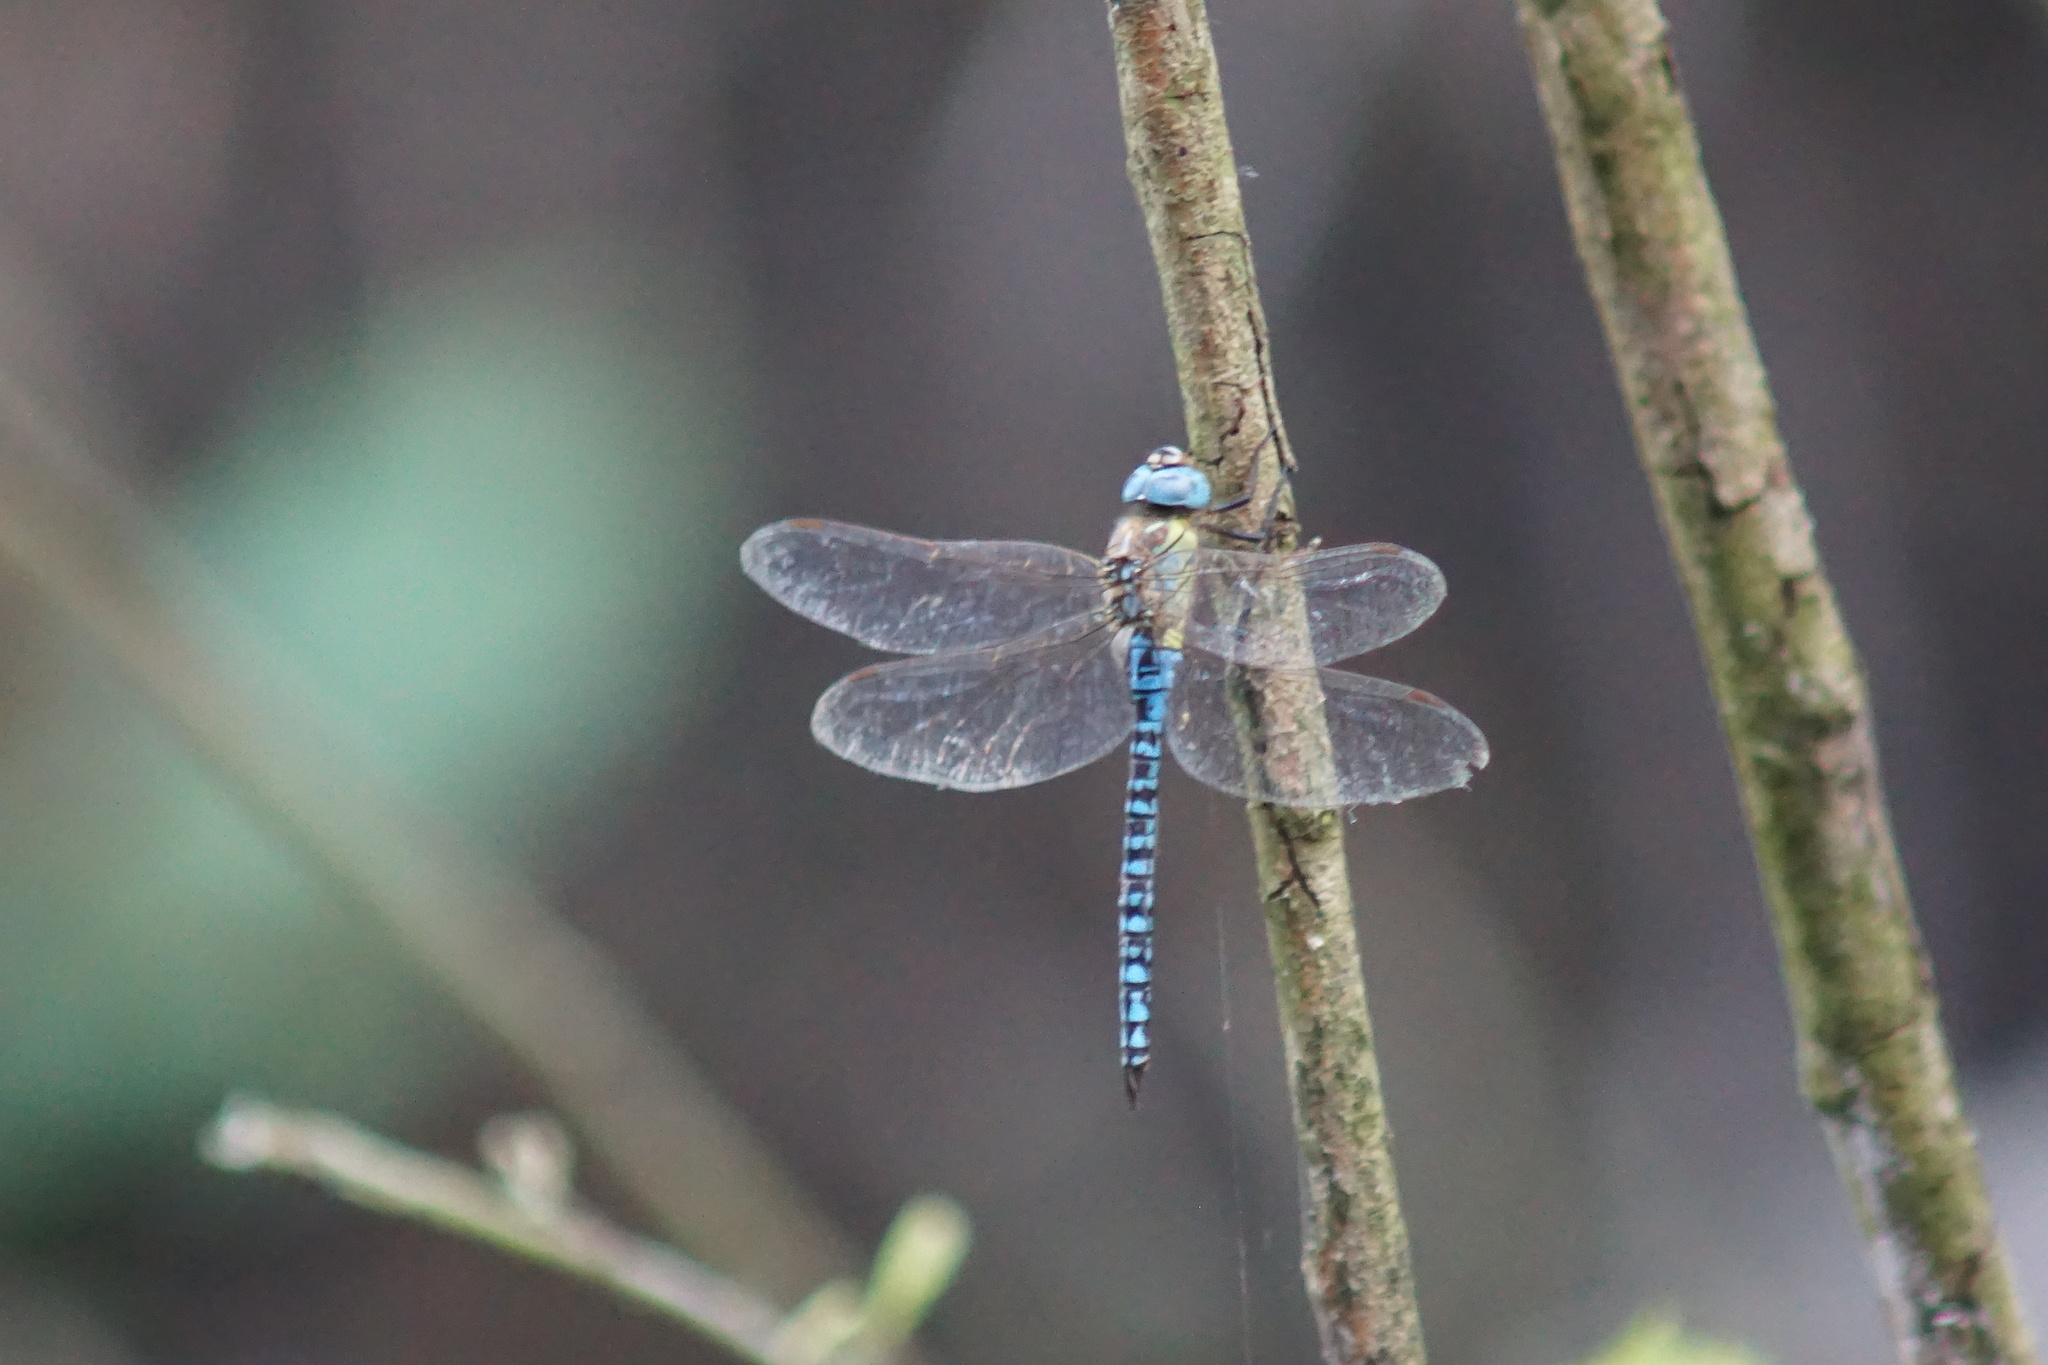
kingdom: Animalia
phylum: Arthropoda
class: Insecta
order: Odonata
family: Aeshnidae
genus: Aeshna
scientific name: Aeshna affinis
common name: Southern migrant hawker
